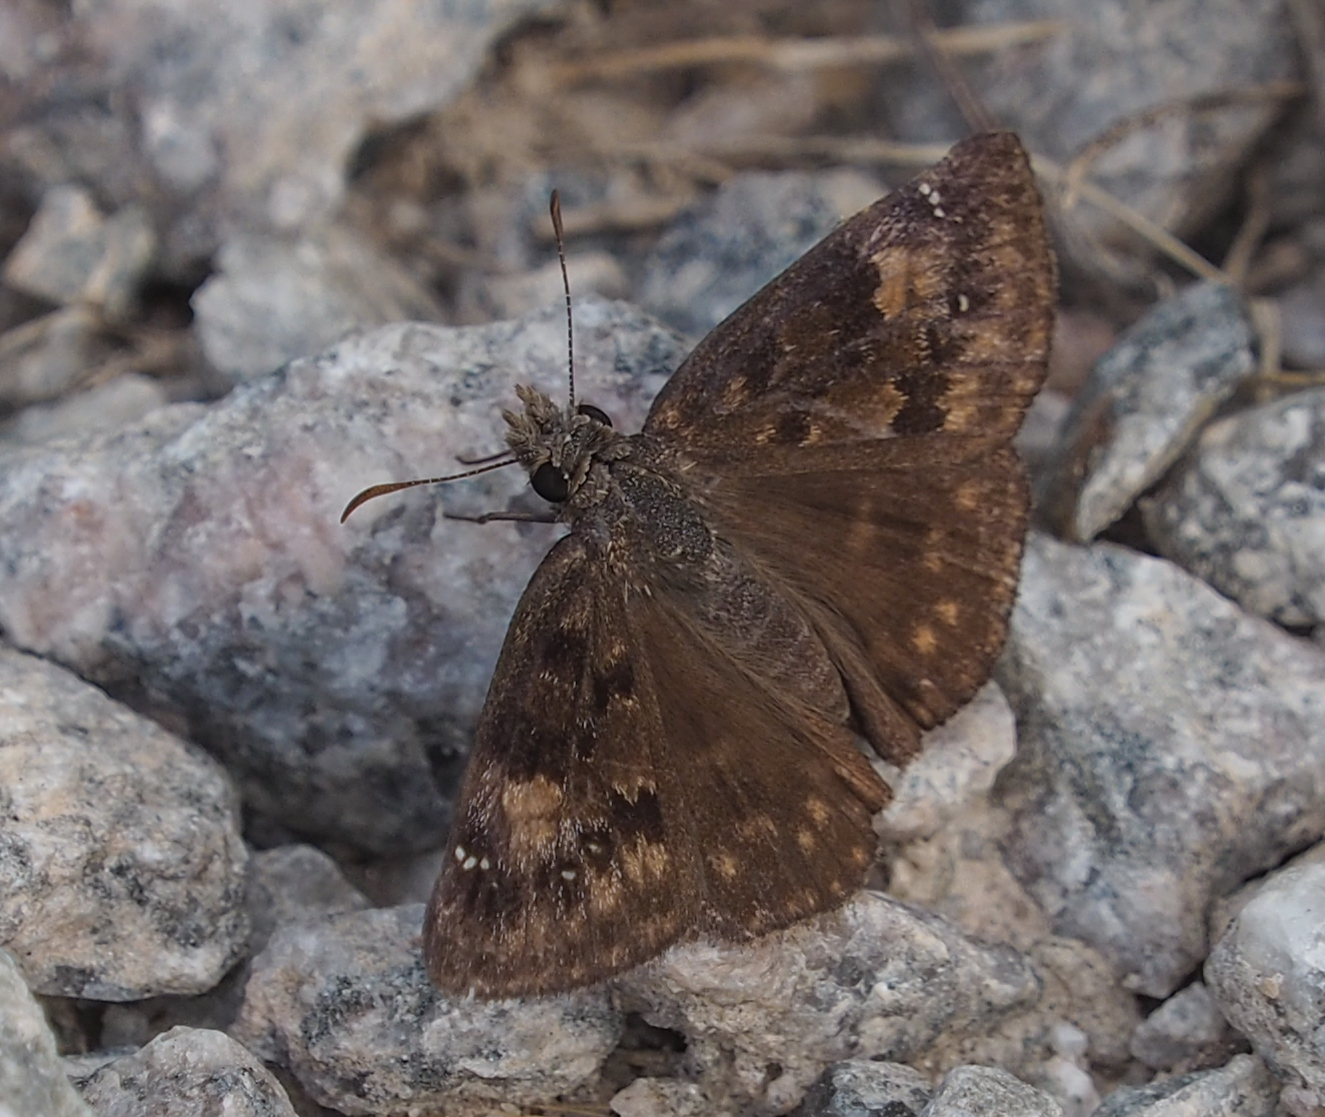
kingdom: Animalia
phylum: Arthropoda
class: Insecta
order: Lepidoptera
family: Hesperiidae
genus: Erynnis
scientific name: Erynnis baptisiae
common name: Wild indigo duskywing
